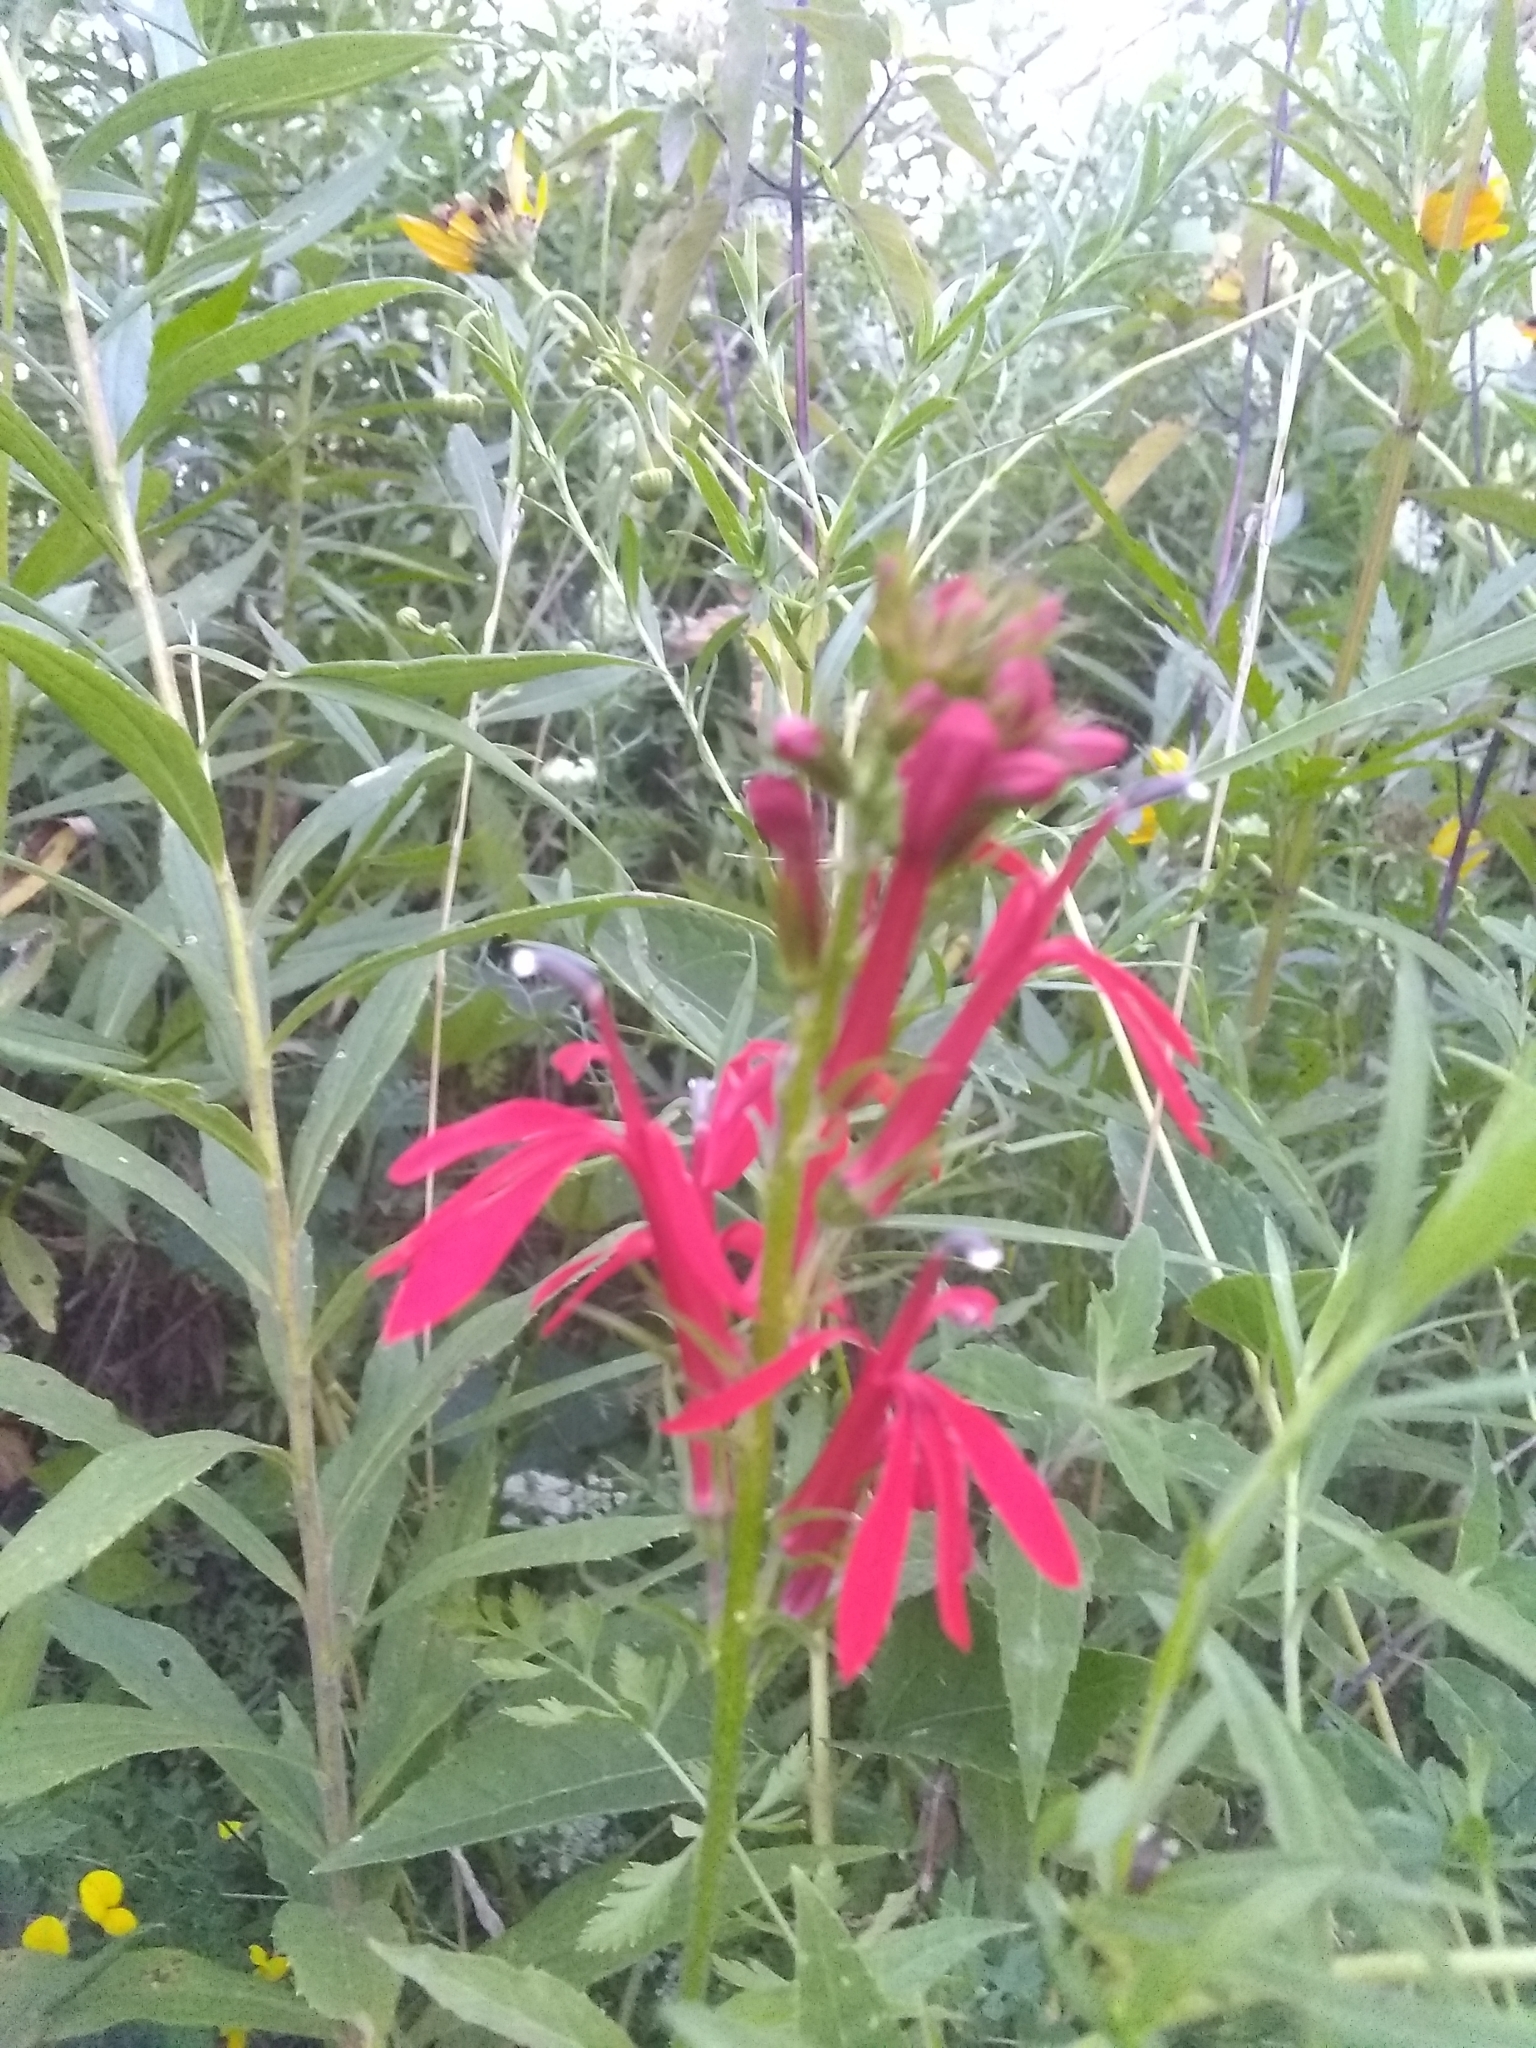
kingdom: Plantae
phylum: Tracheophyta
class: Magnoliopsida
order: Asterales
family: Campanulaceae
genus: Lobelia
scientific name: Lobelia cardinalis
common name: Cardinal flower
